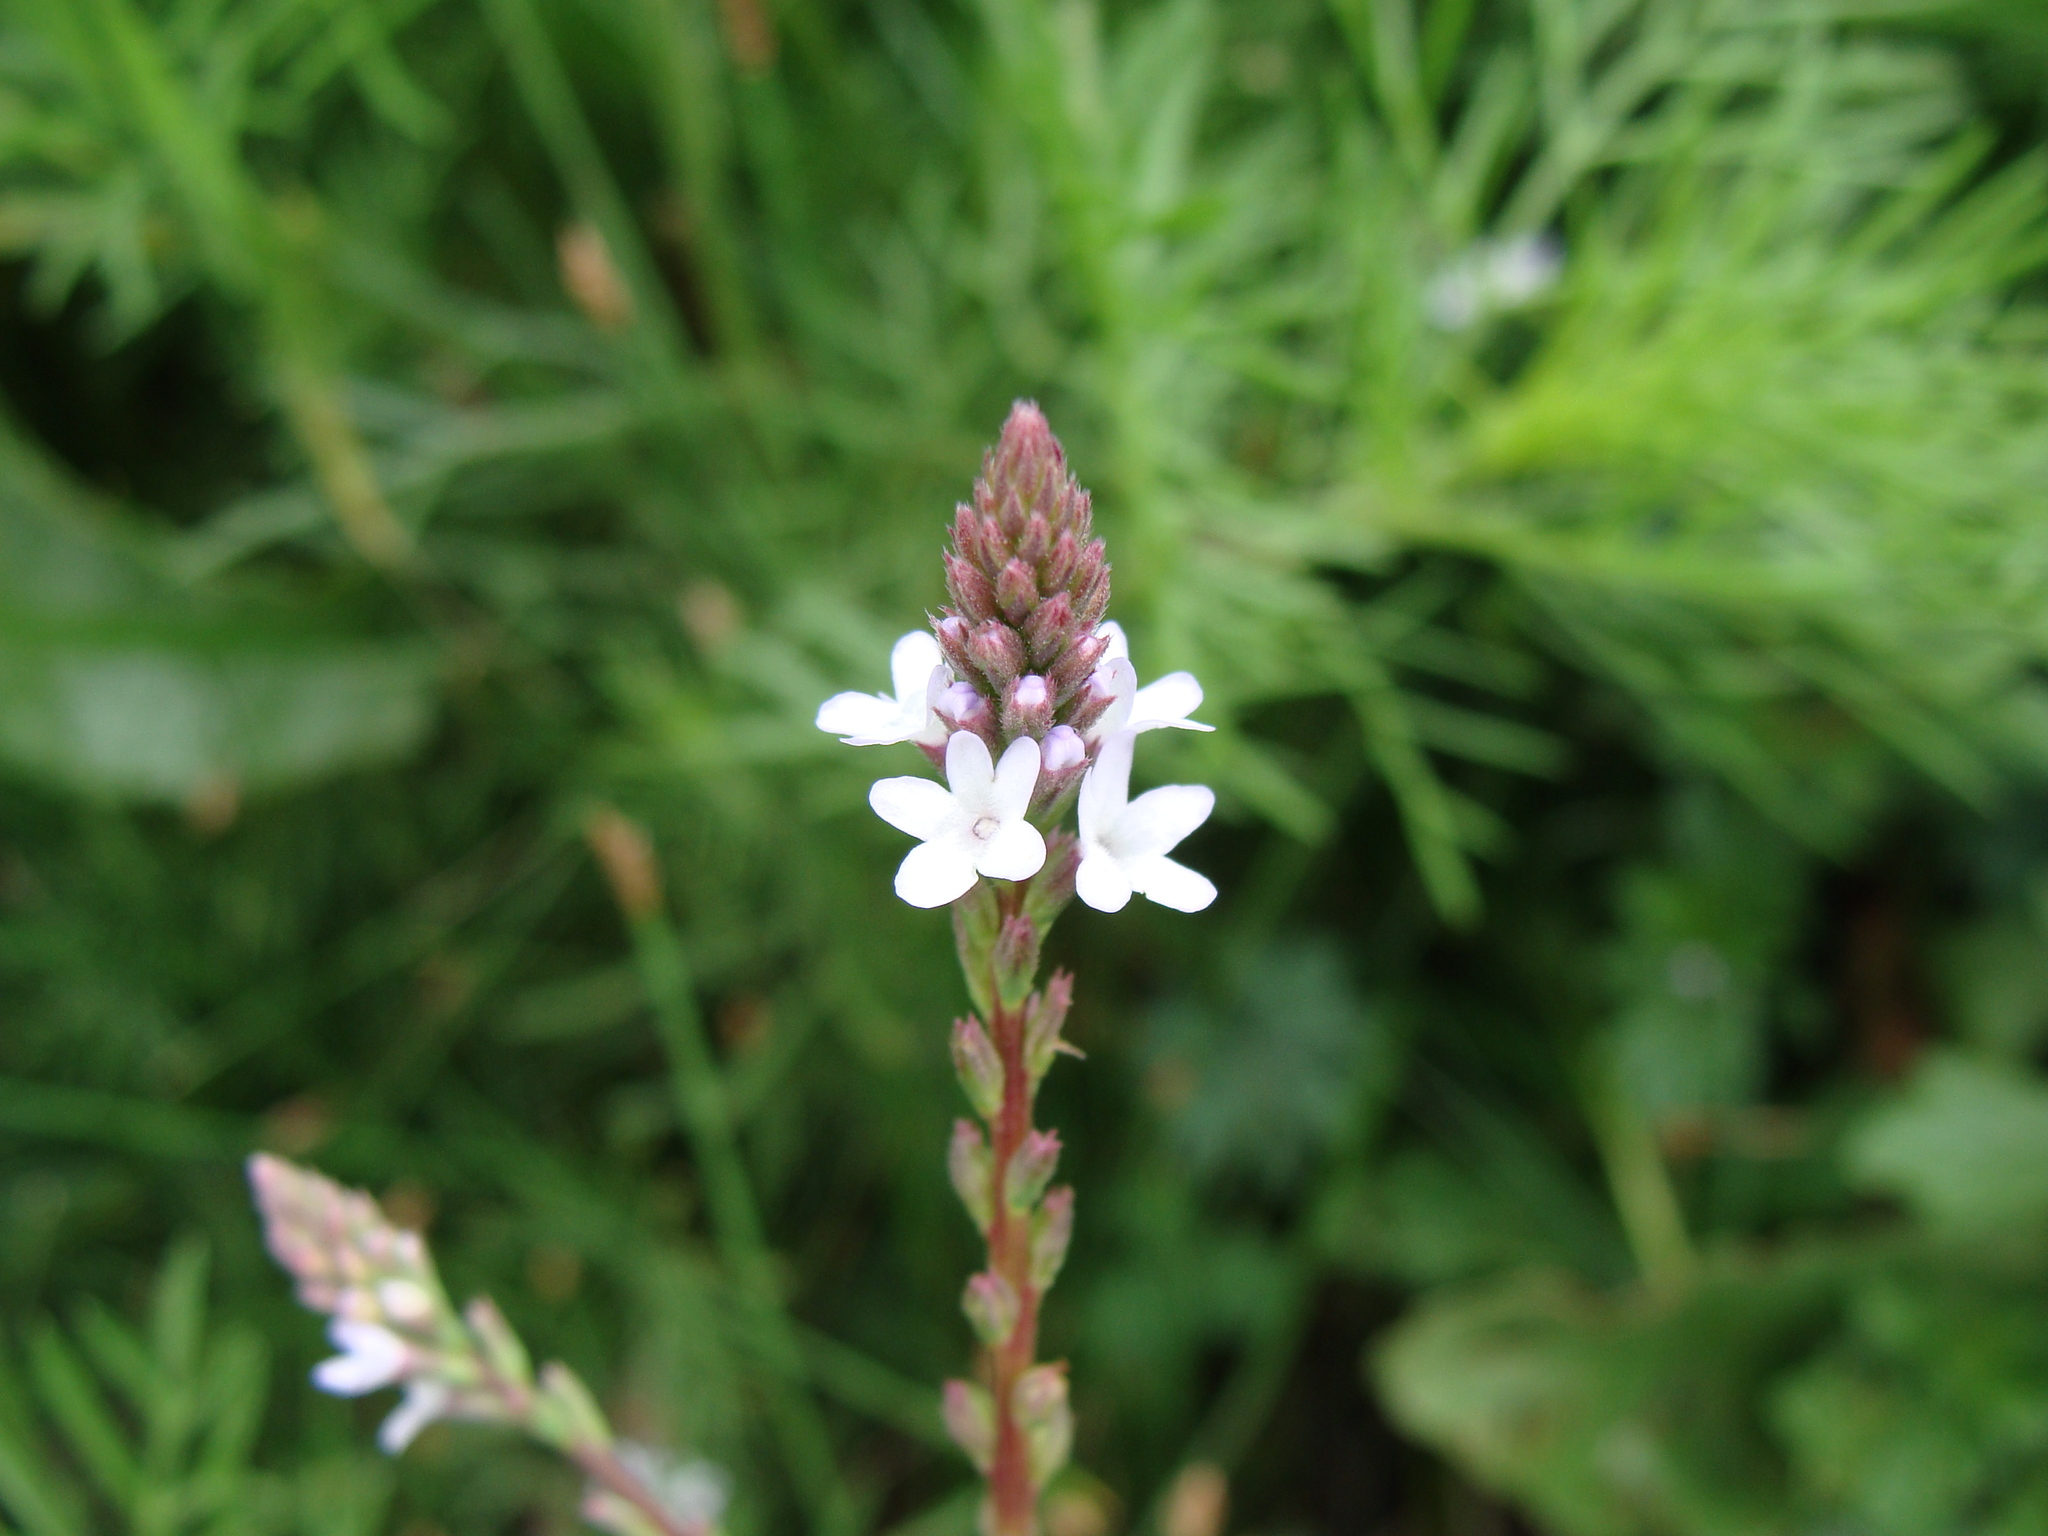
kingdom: Plantae
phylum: Tracheophyta
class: Magnoliopsida
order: Lamiales
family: Verbenaceae
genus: Verbena
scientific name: Verbena carolina
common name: Carolina vervain
